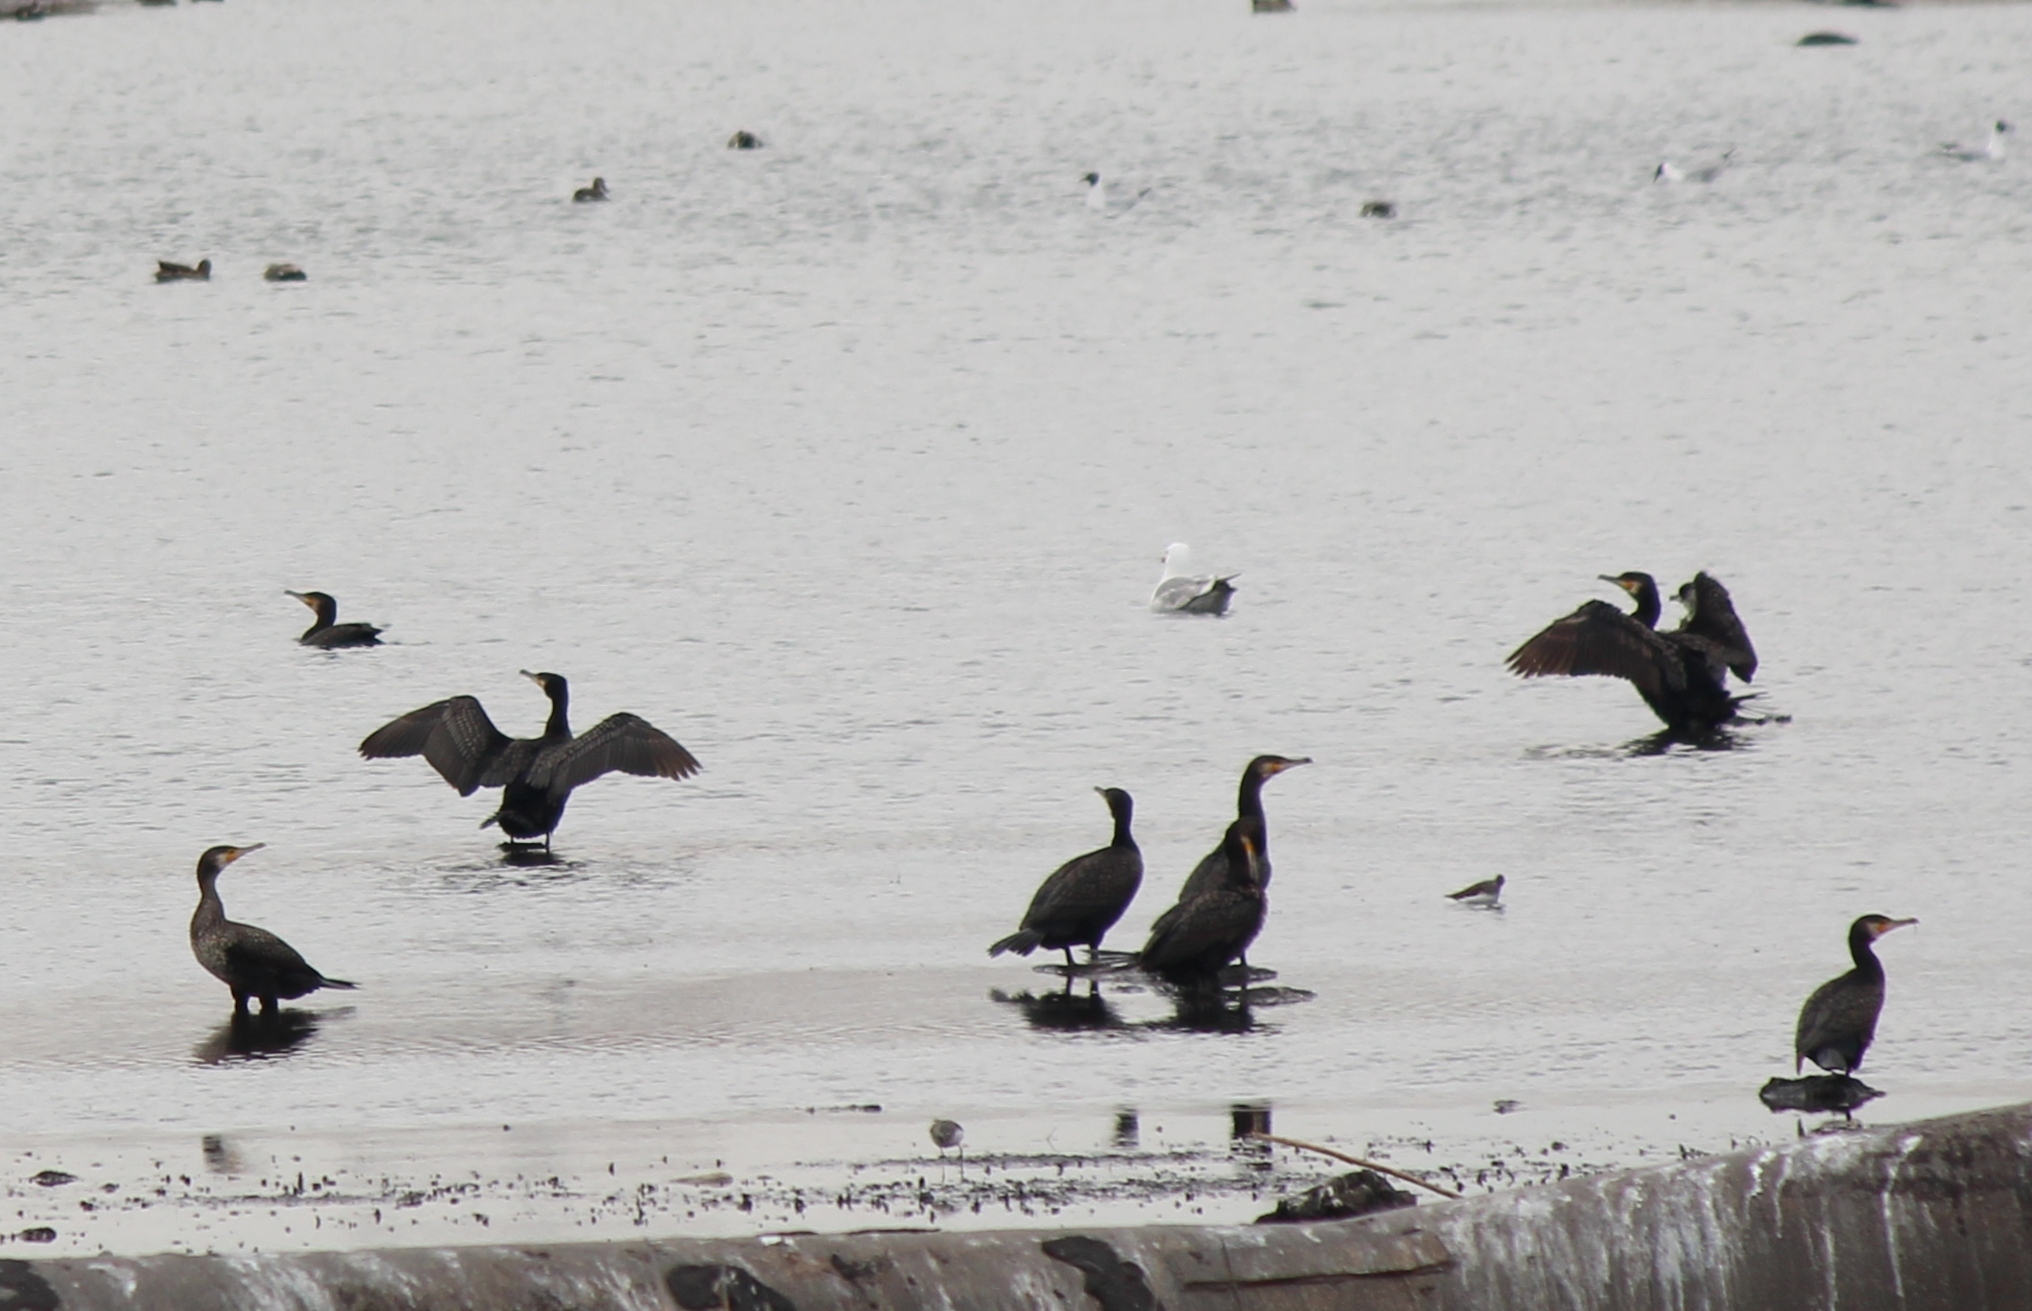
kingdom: Animalia
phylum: Chordata
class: Aves
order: Suliformes
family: Phalacrocoracidae
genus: Phalacrocorax
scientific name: Phalacrocorax carbo
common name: Great cormorant
